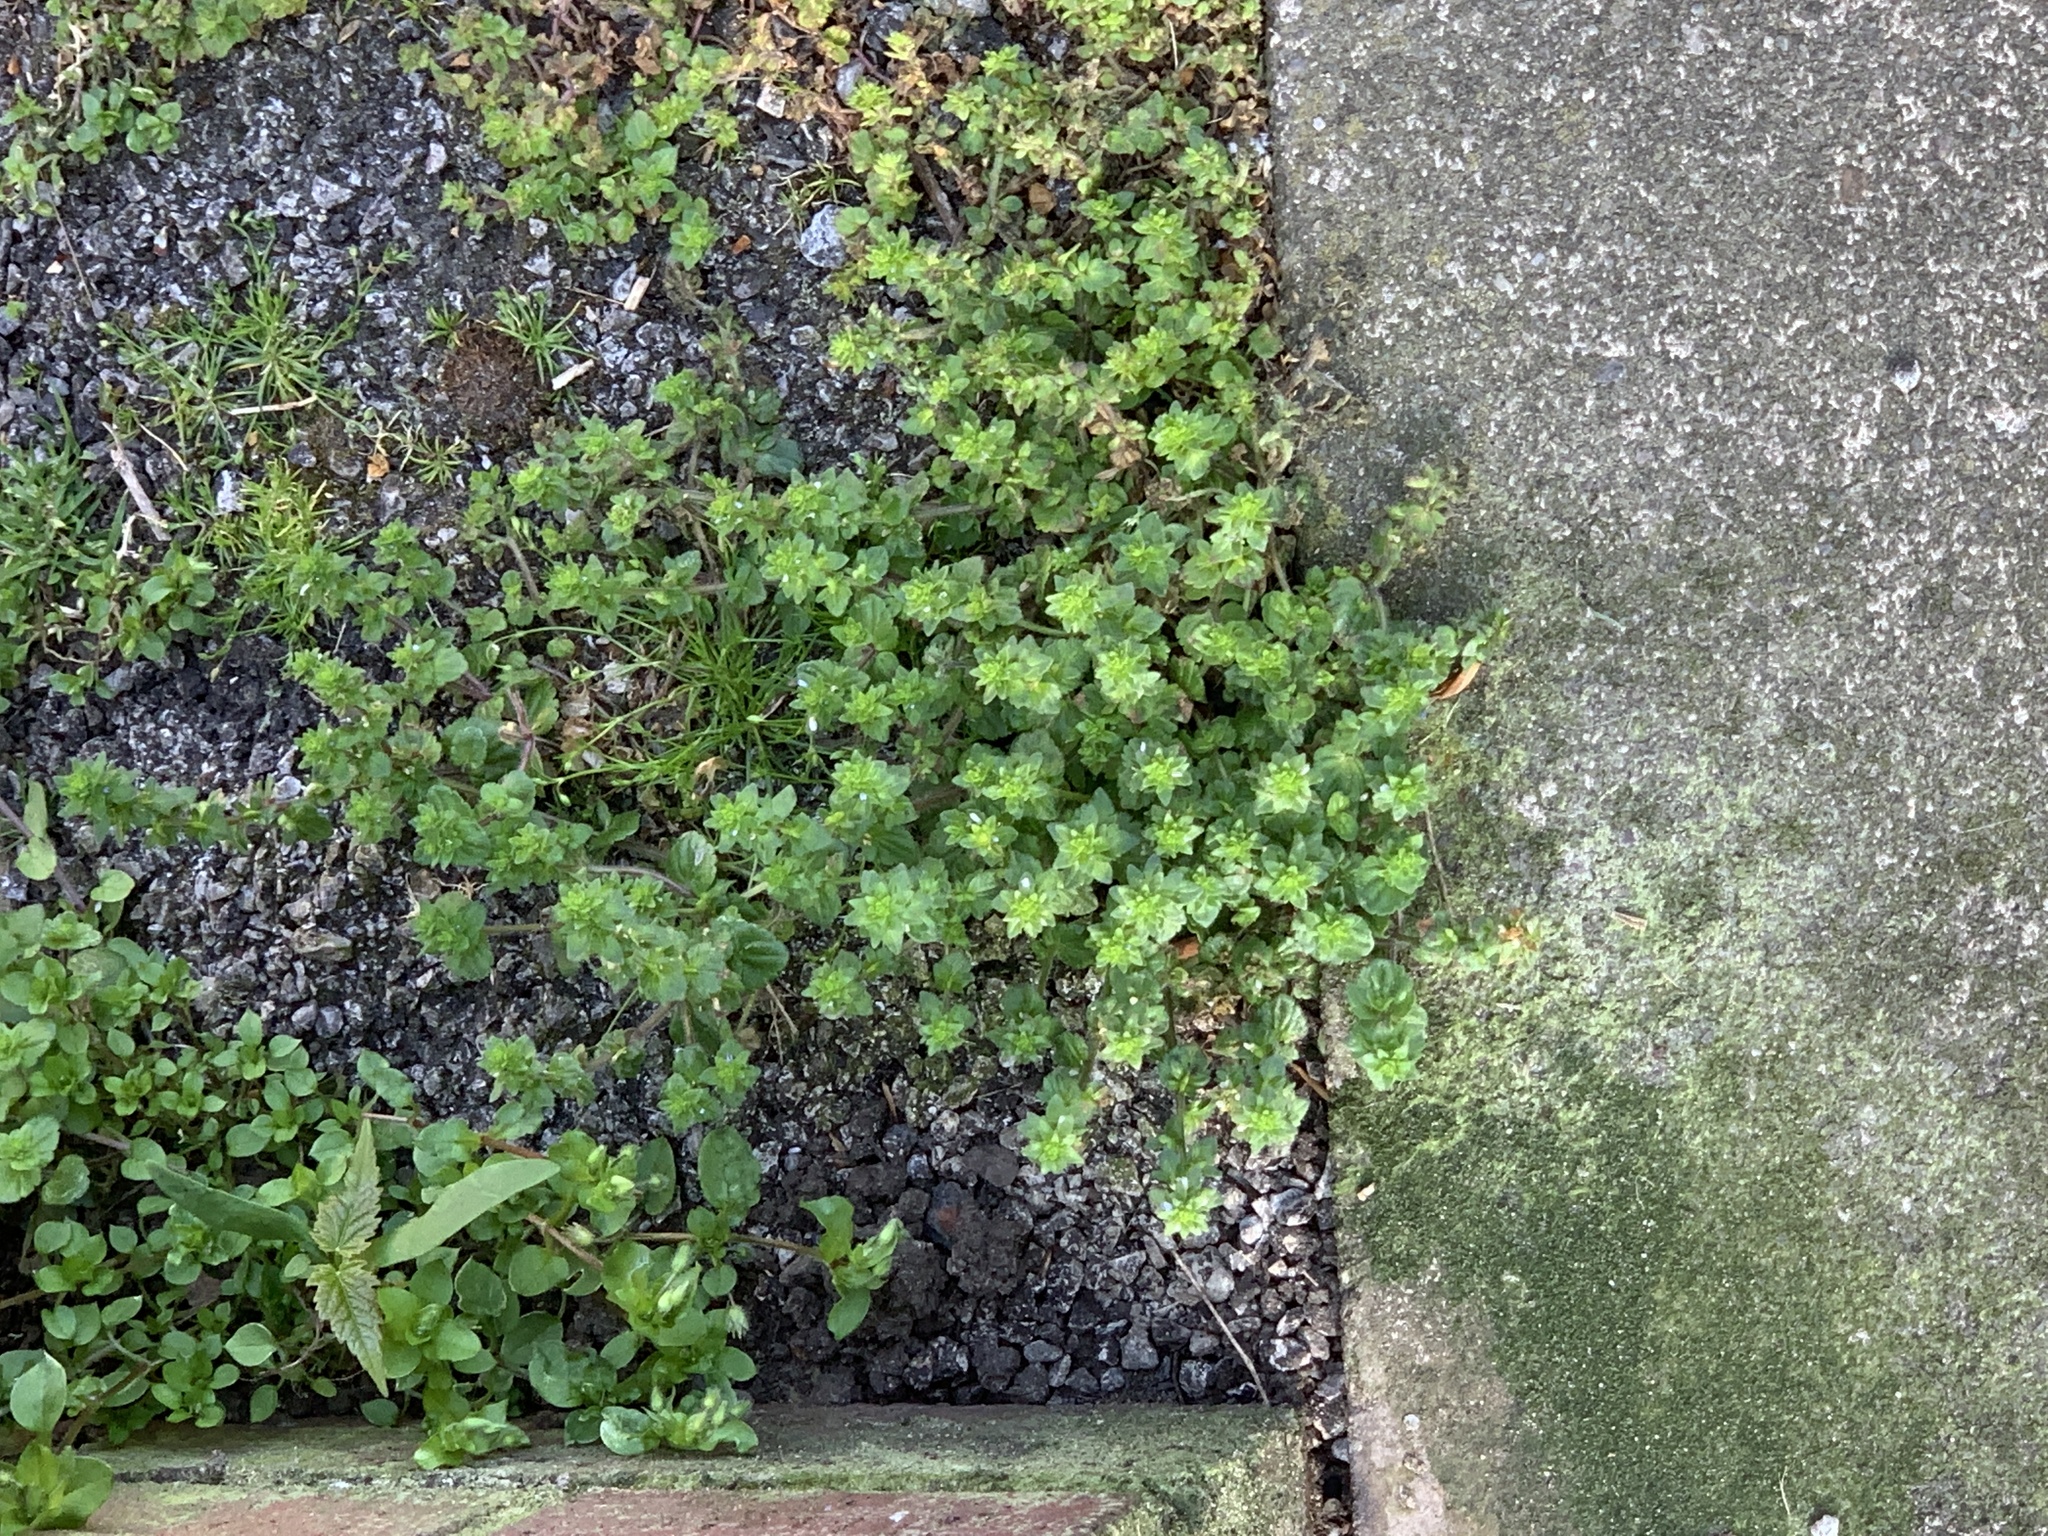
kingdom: Plantae
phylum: Tracheophyta
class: Magnoliopsida
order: Lamiales
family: Plantaginaceae
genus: Veronica
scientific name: Veronica arvensis
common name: Corn speedwell
